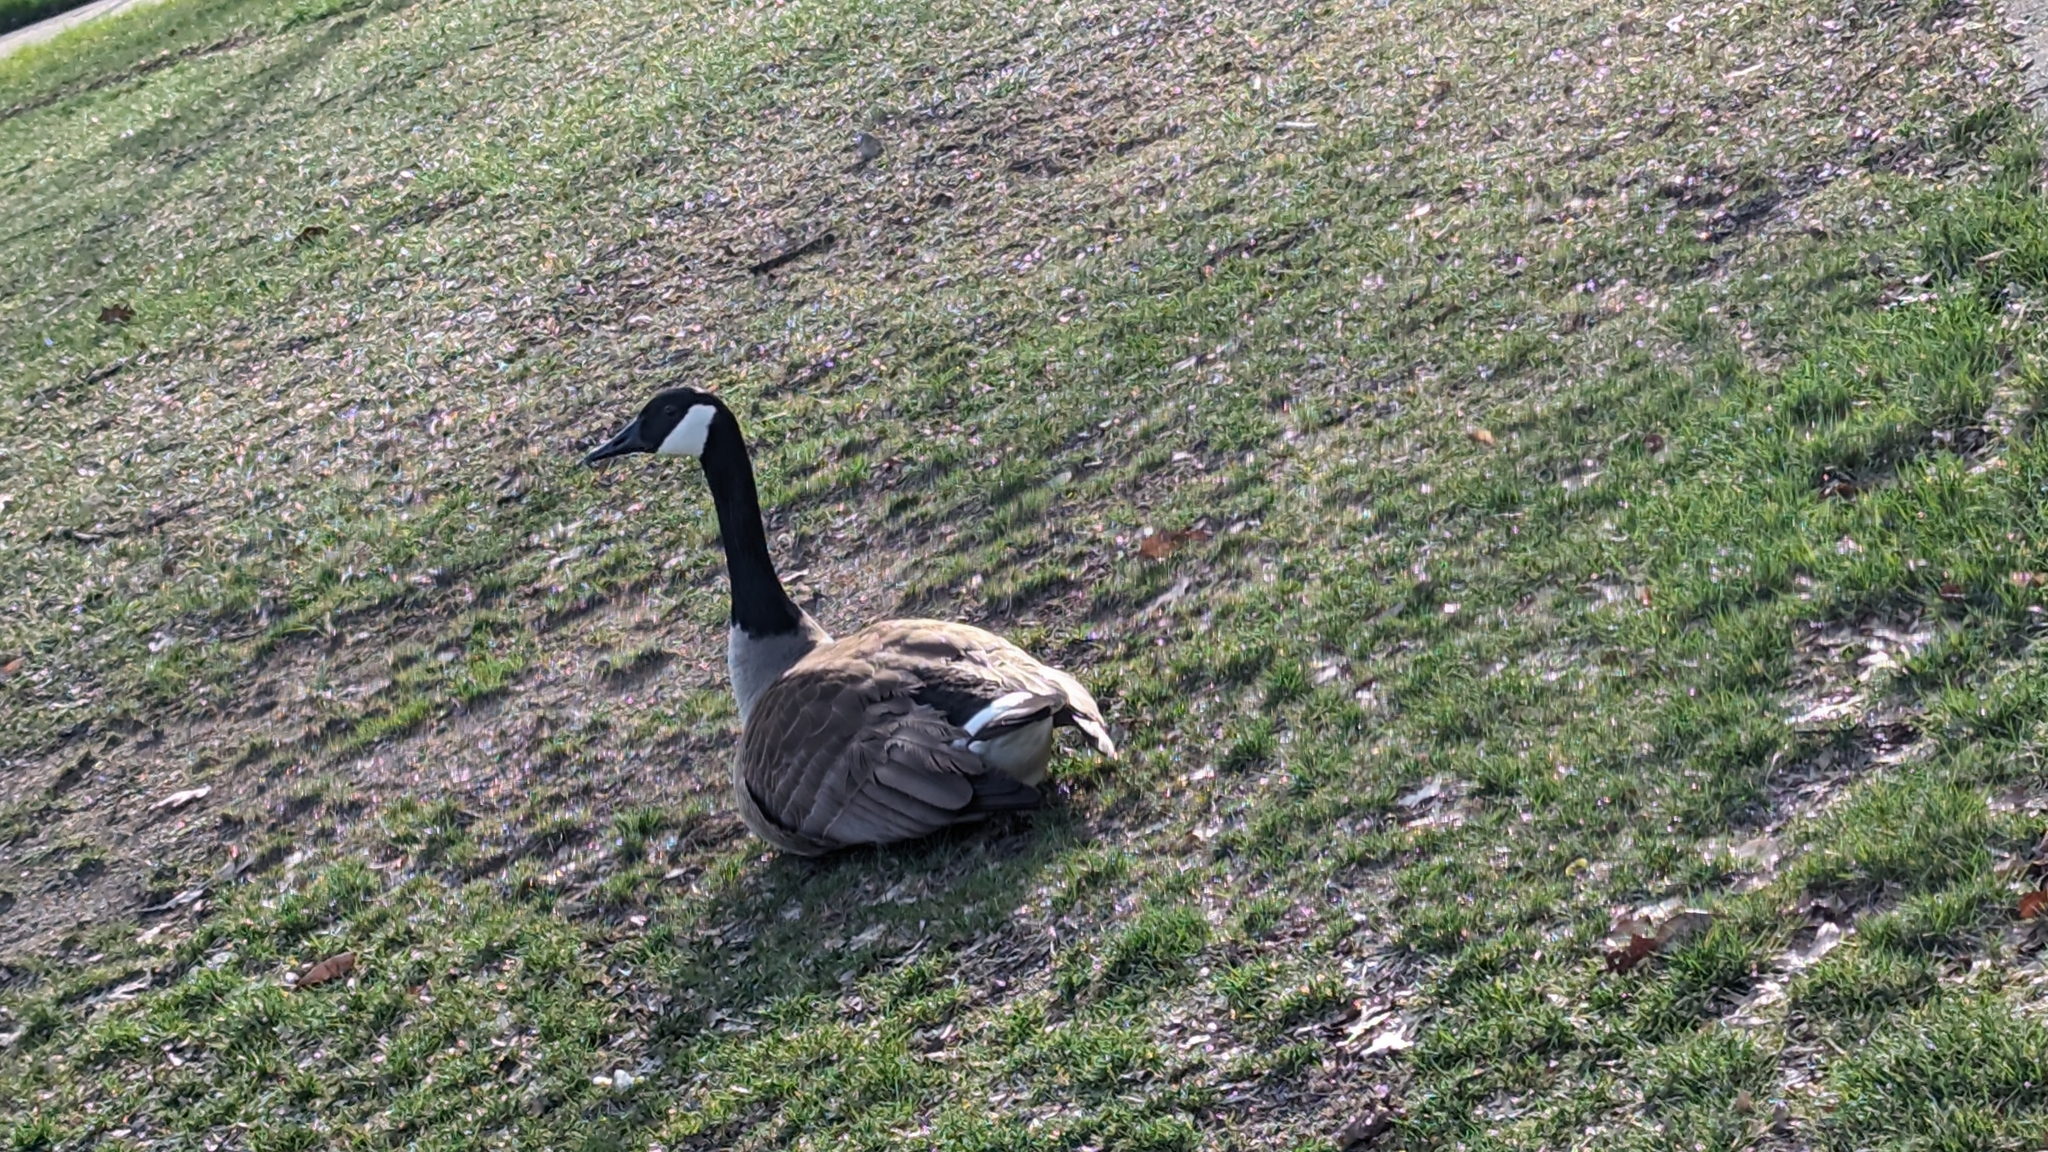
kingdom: Animalia
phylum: Chordata
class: Aves
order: Anseriformes
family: Anatidae
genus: Branta
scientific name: Branta canadensis
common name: Canada goose
